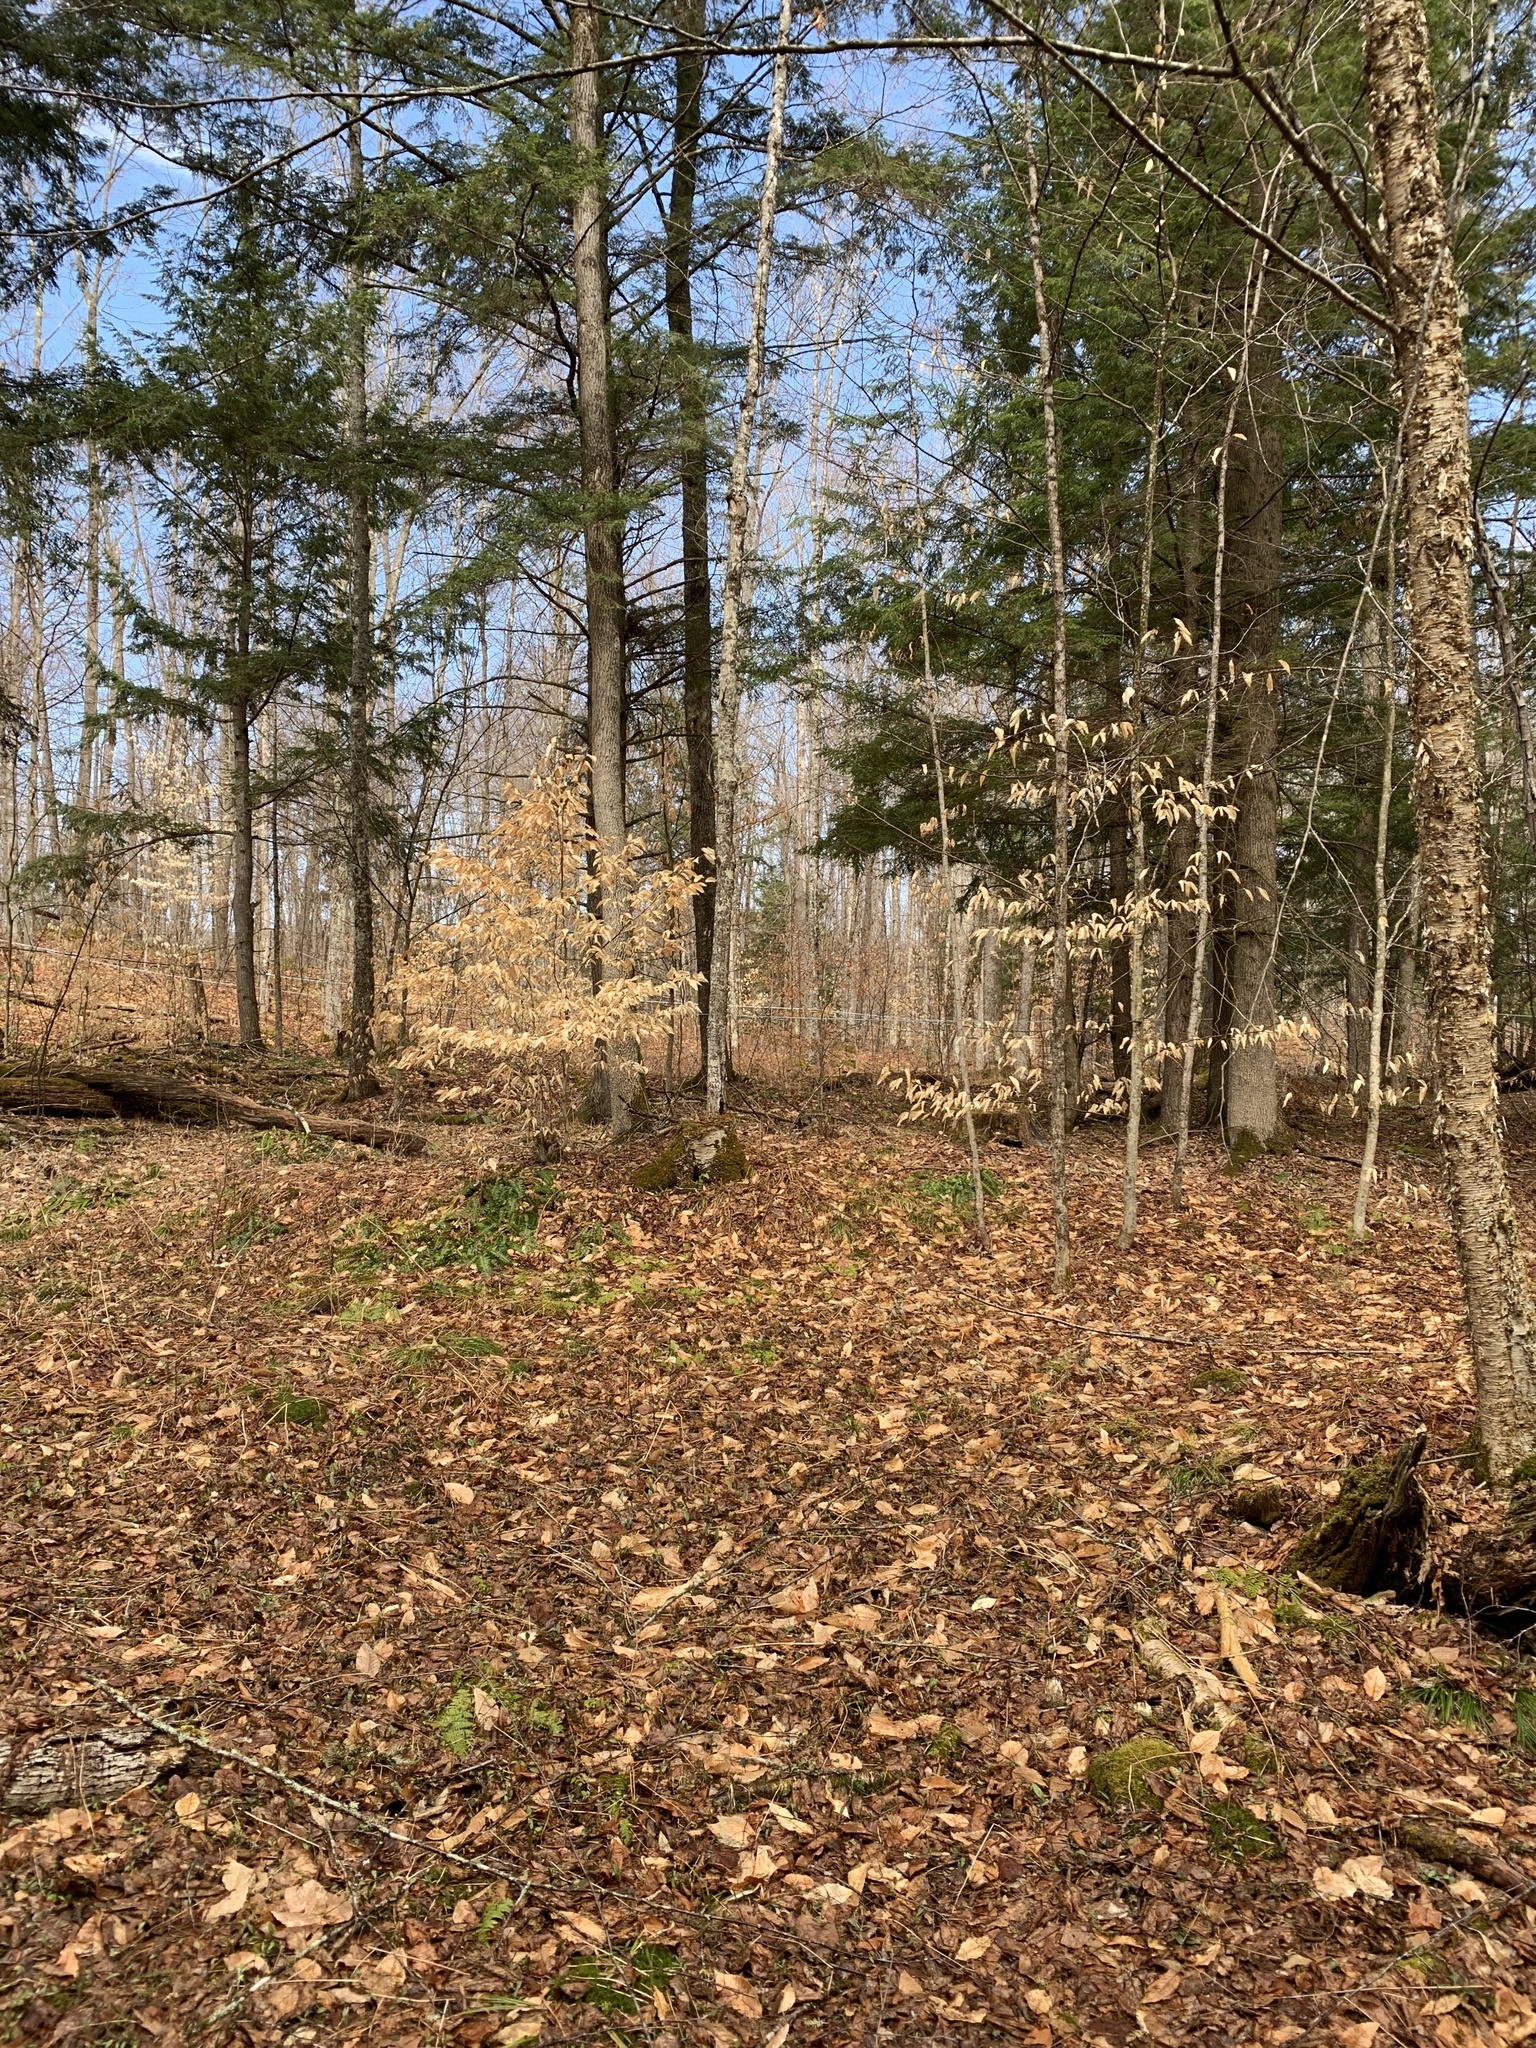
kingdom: Plantae
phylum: Tracheophyta
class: Magnoliopsida
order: Fagales
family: Fagaceae
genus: Fagus
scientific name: Fagus grandifolia
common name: American beech
